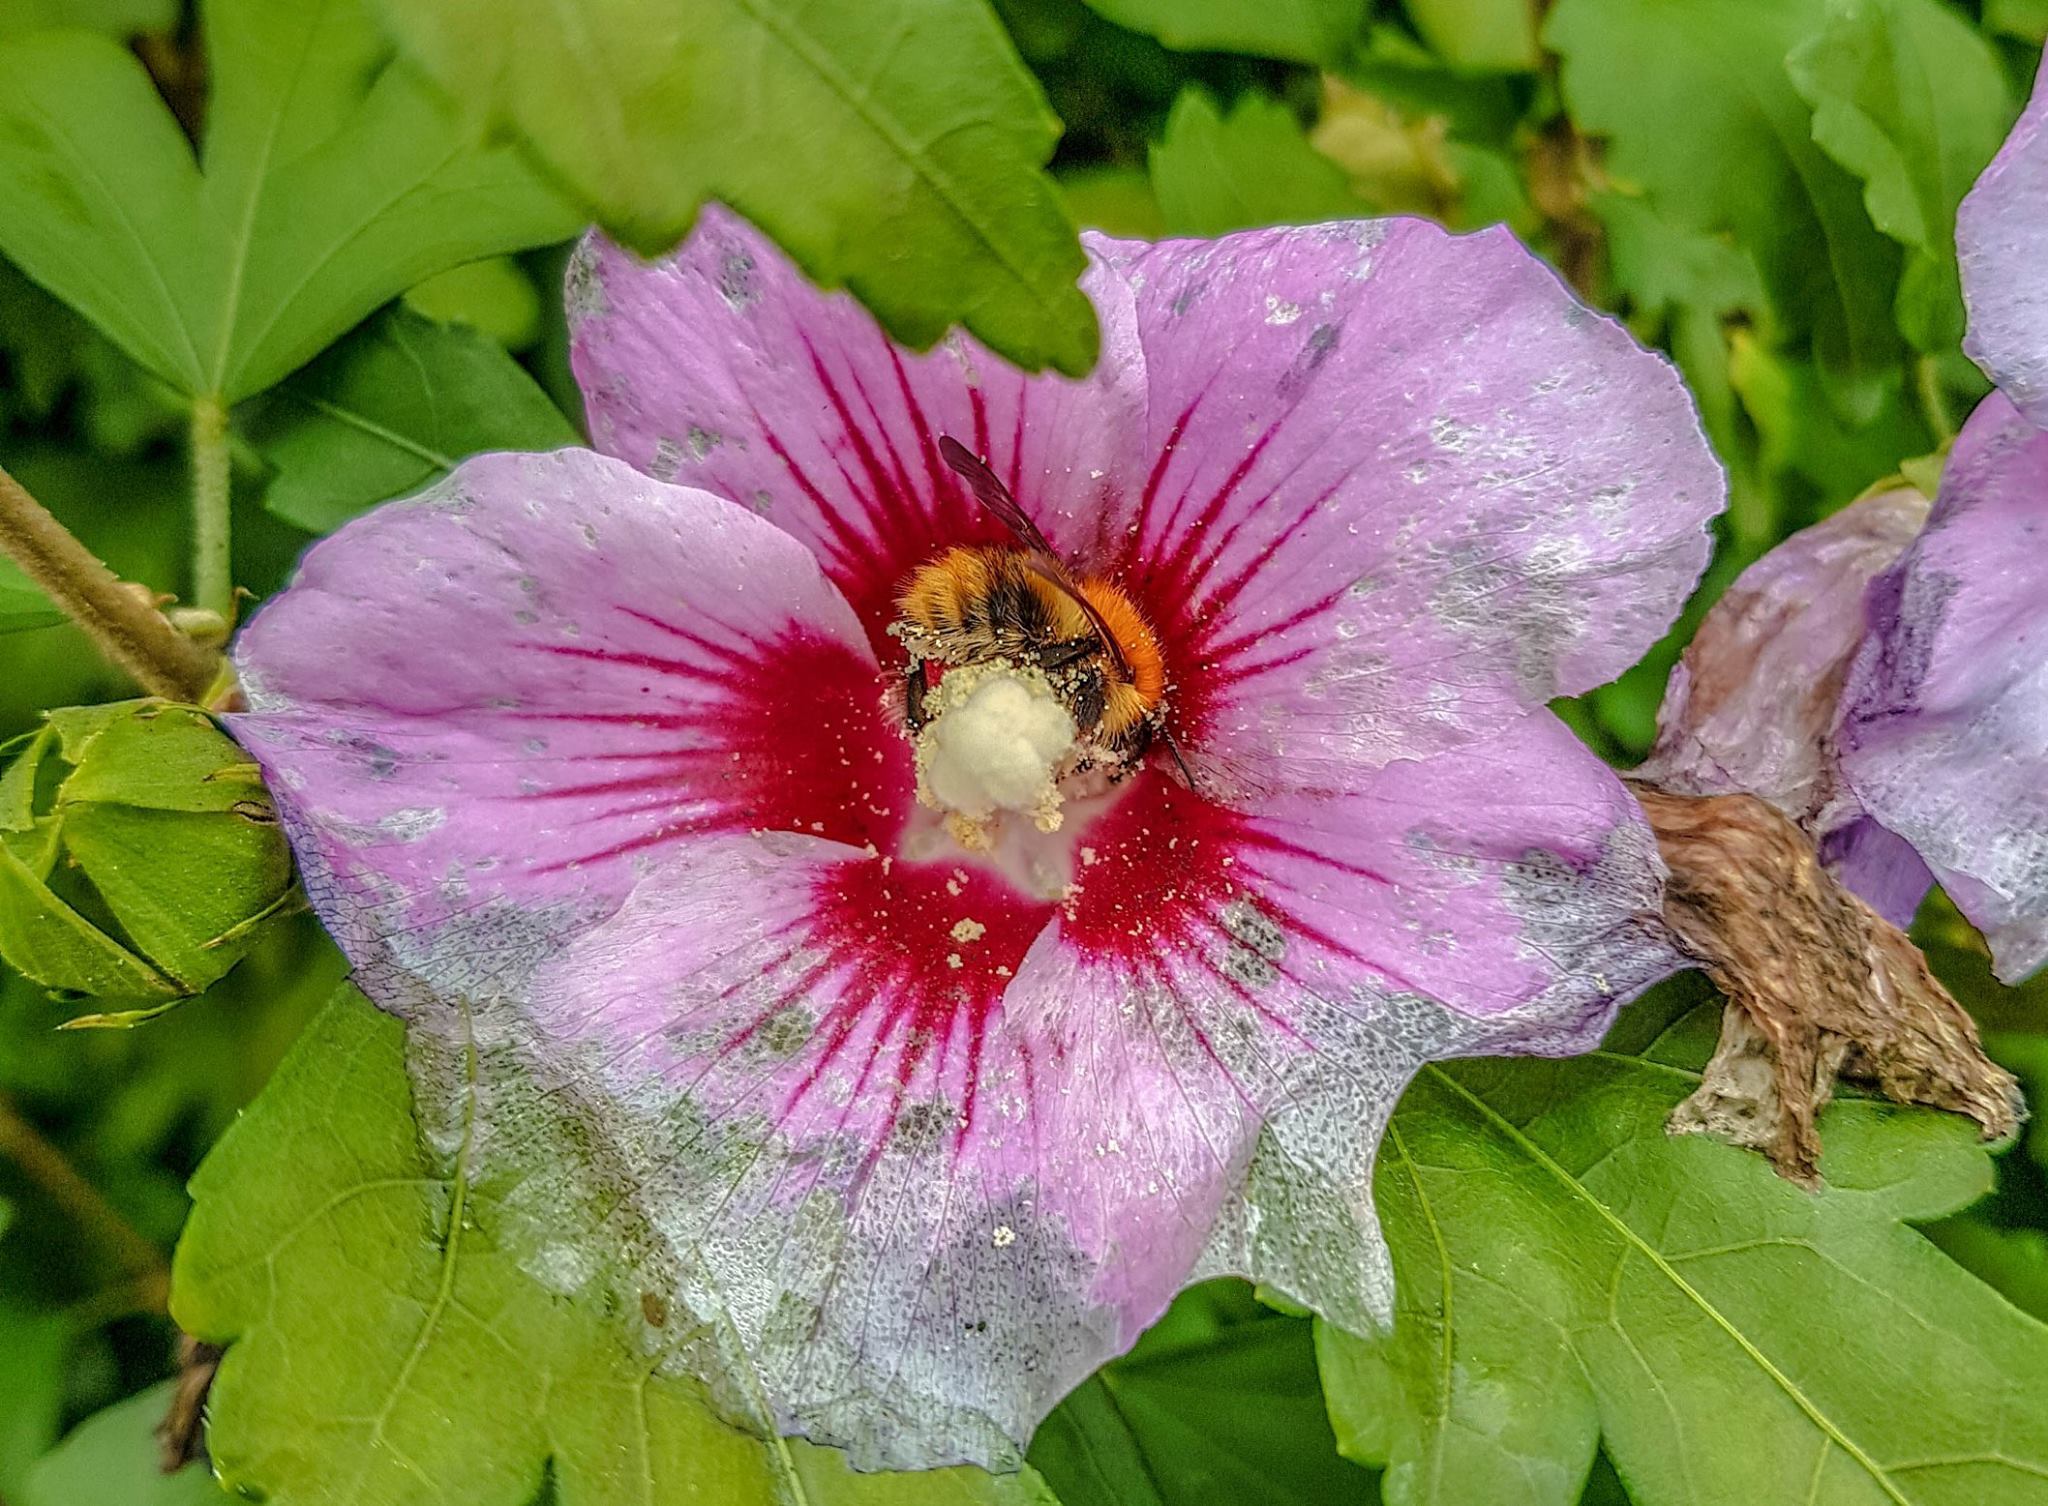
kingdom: Animalia
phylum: Arthropoda
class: Insecta
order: Hymenoptera
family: Apidae
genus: Bombus
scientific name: Bombus pascuorum
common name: Common carder bee
